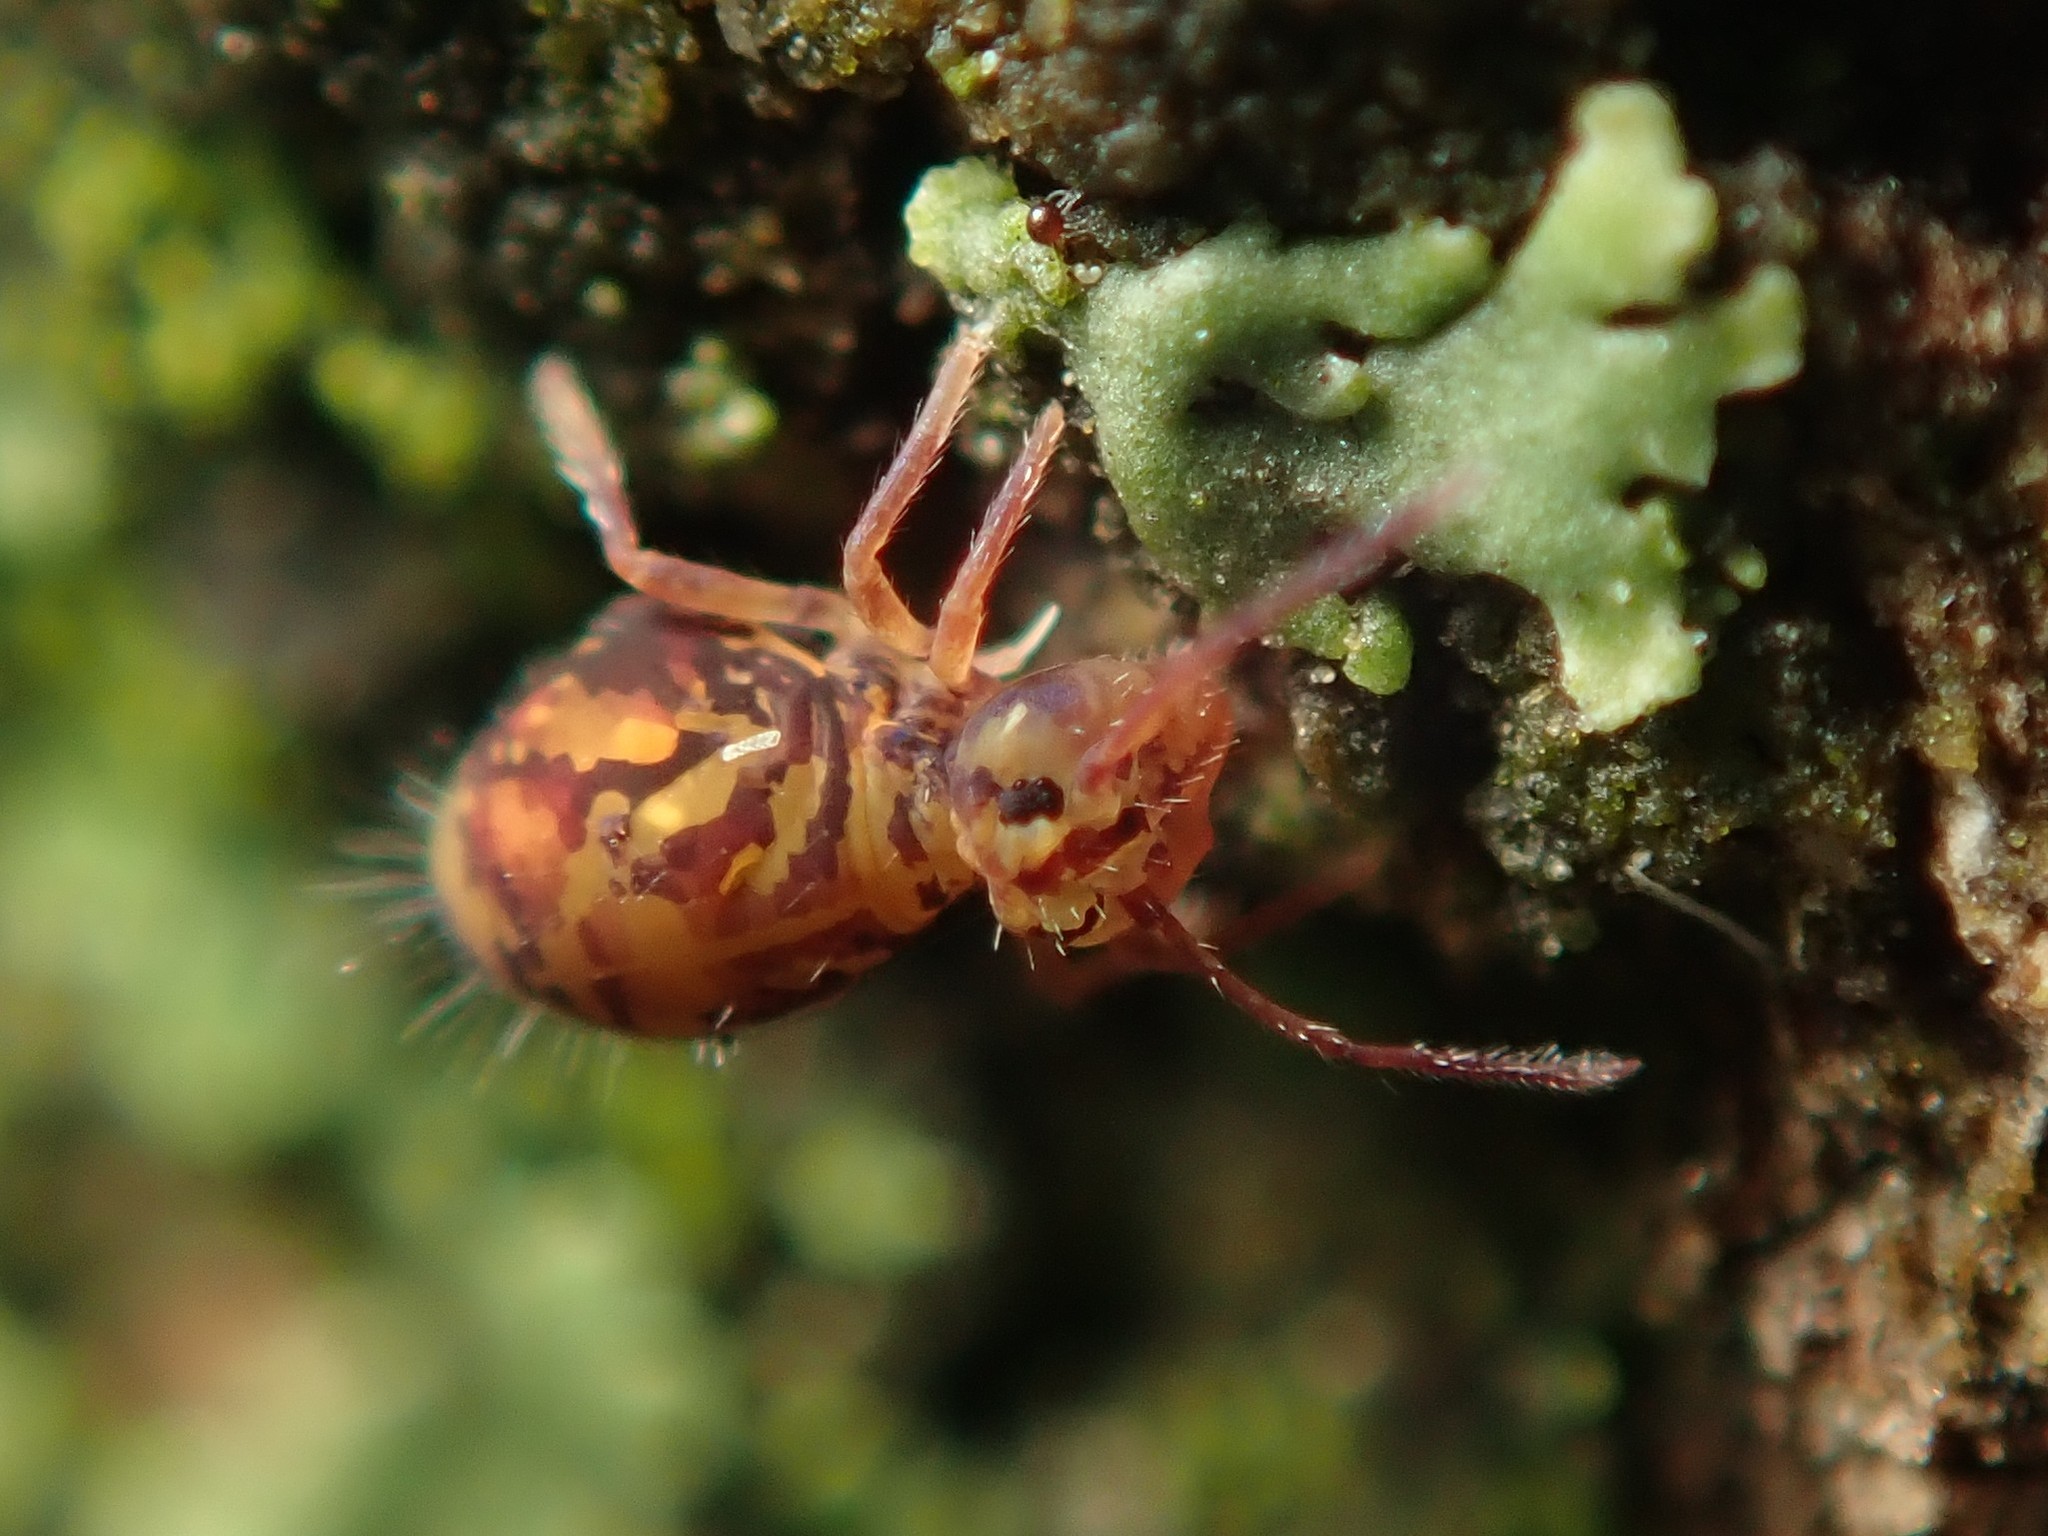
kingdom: Animalia
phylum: Arthropoda
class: Collembola
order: Symphypleona
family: Dicyrtomidae
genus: Dicyrtomina
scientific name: Dicyrtomina ornata
